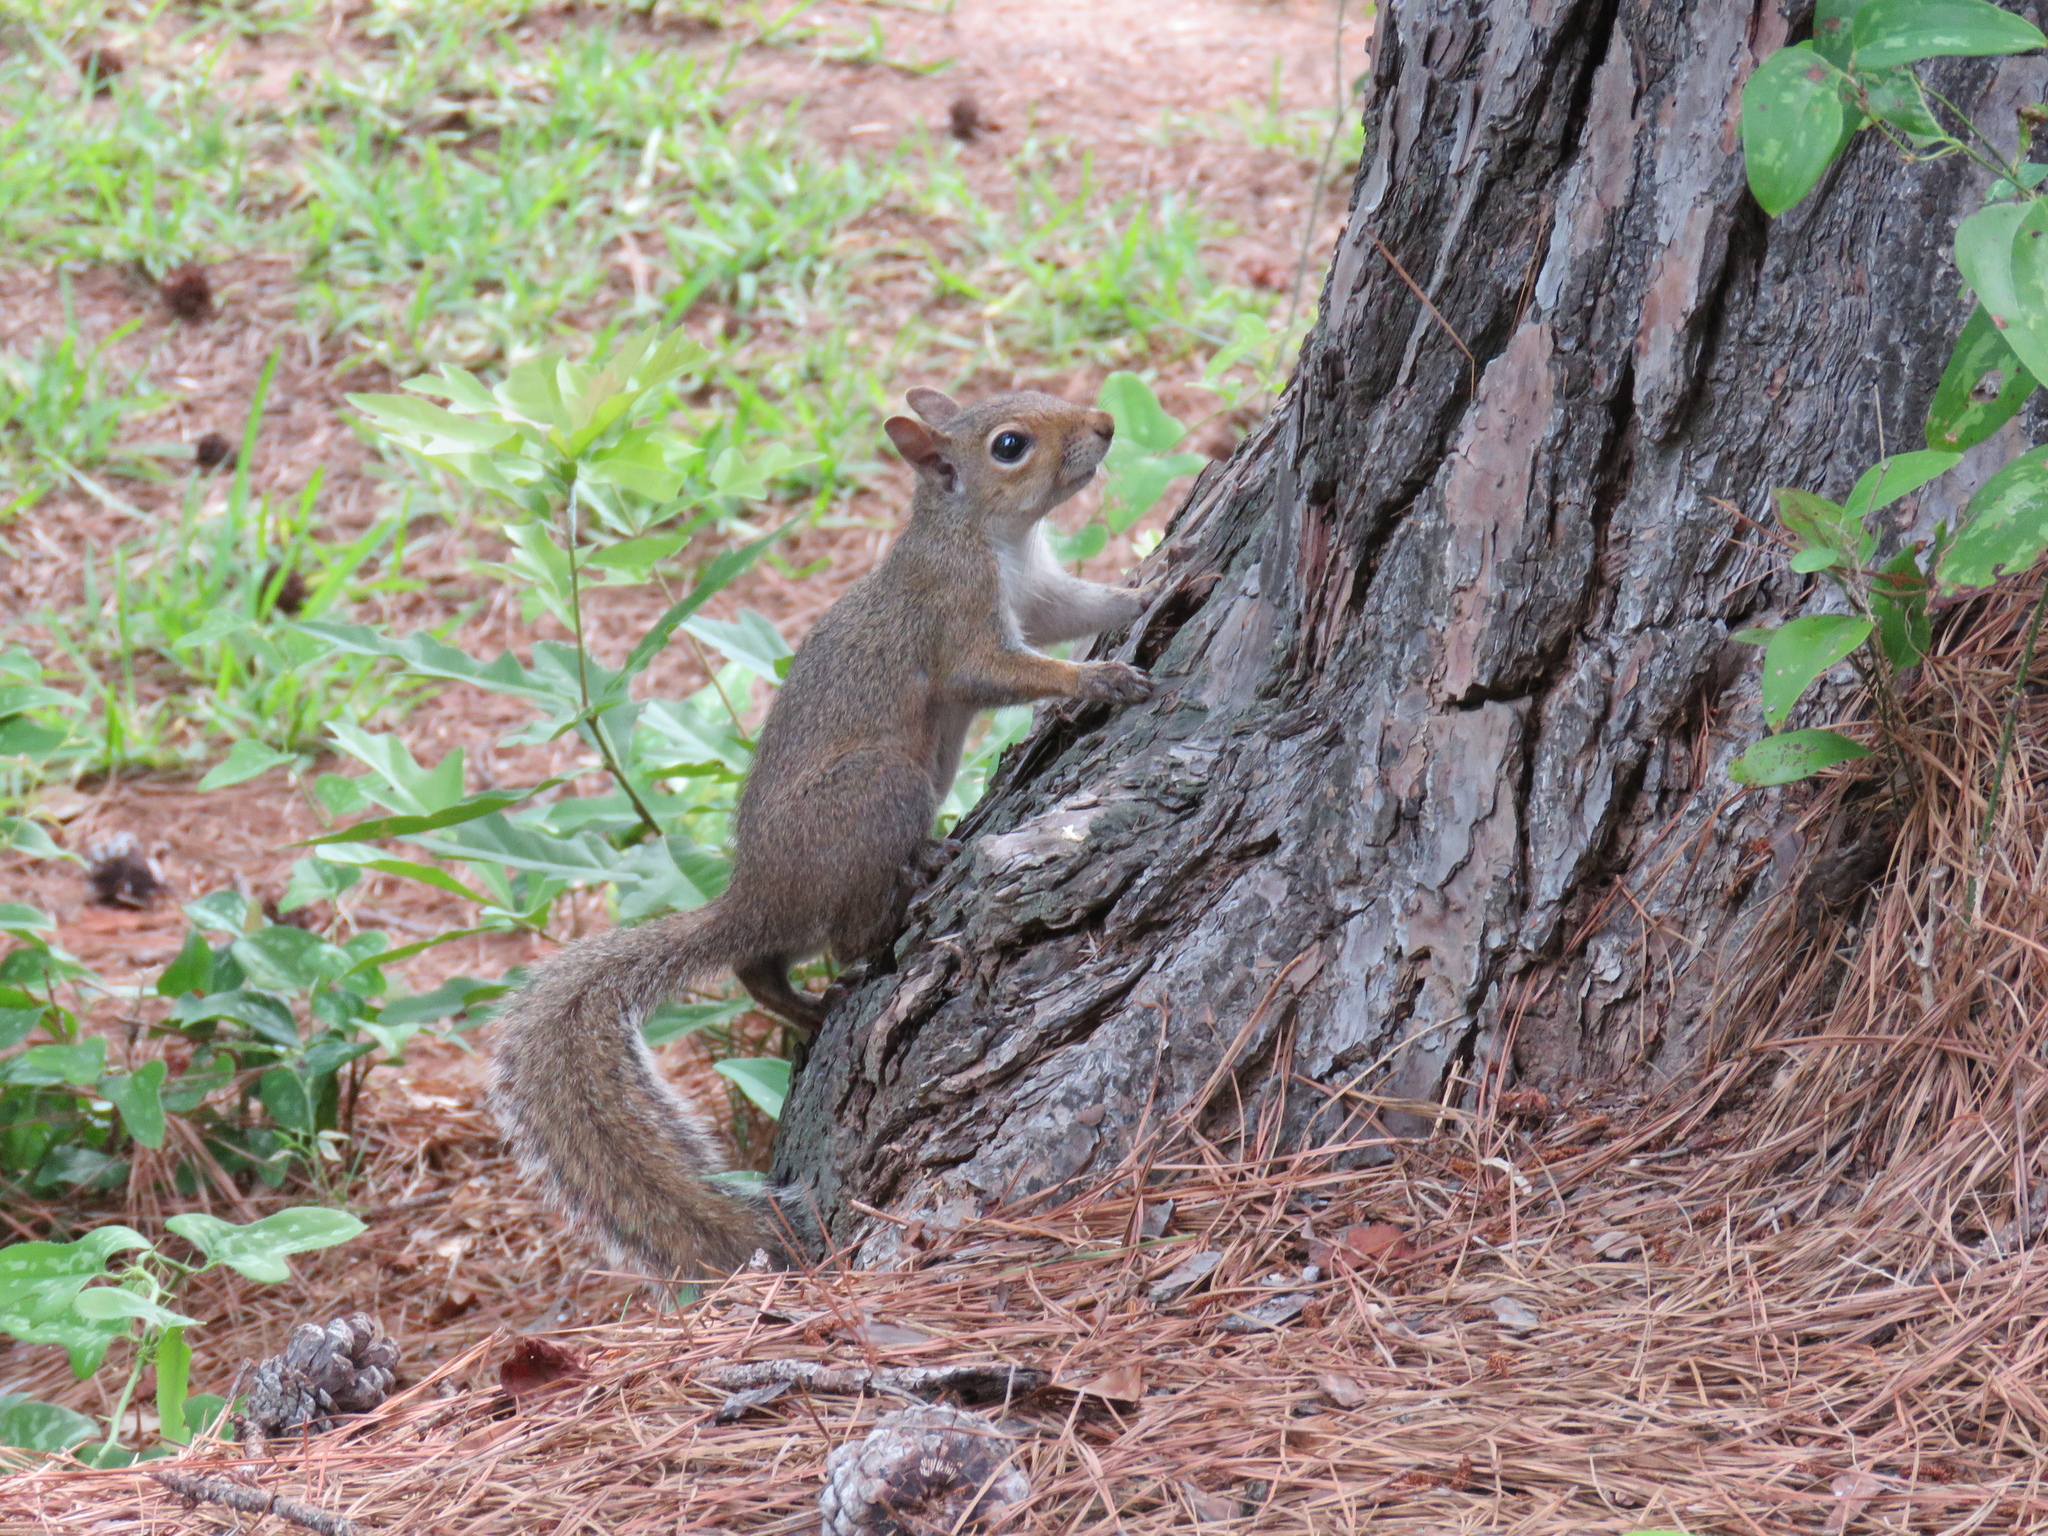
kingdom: Animalia
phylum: Chordata
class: Mammalia
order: Rodentia
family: Sciuridae
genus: Sciurus
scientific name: Sciurus carolinensis
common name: Eastern gray squirrel
